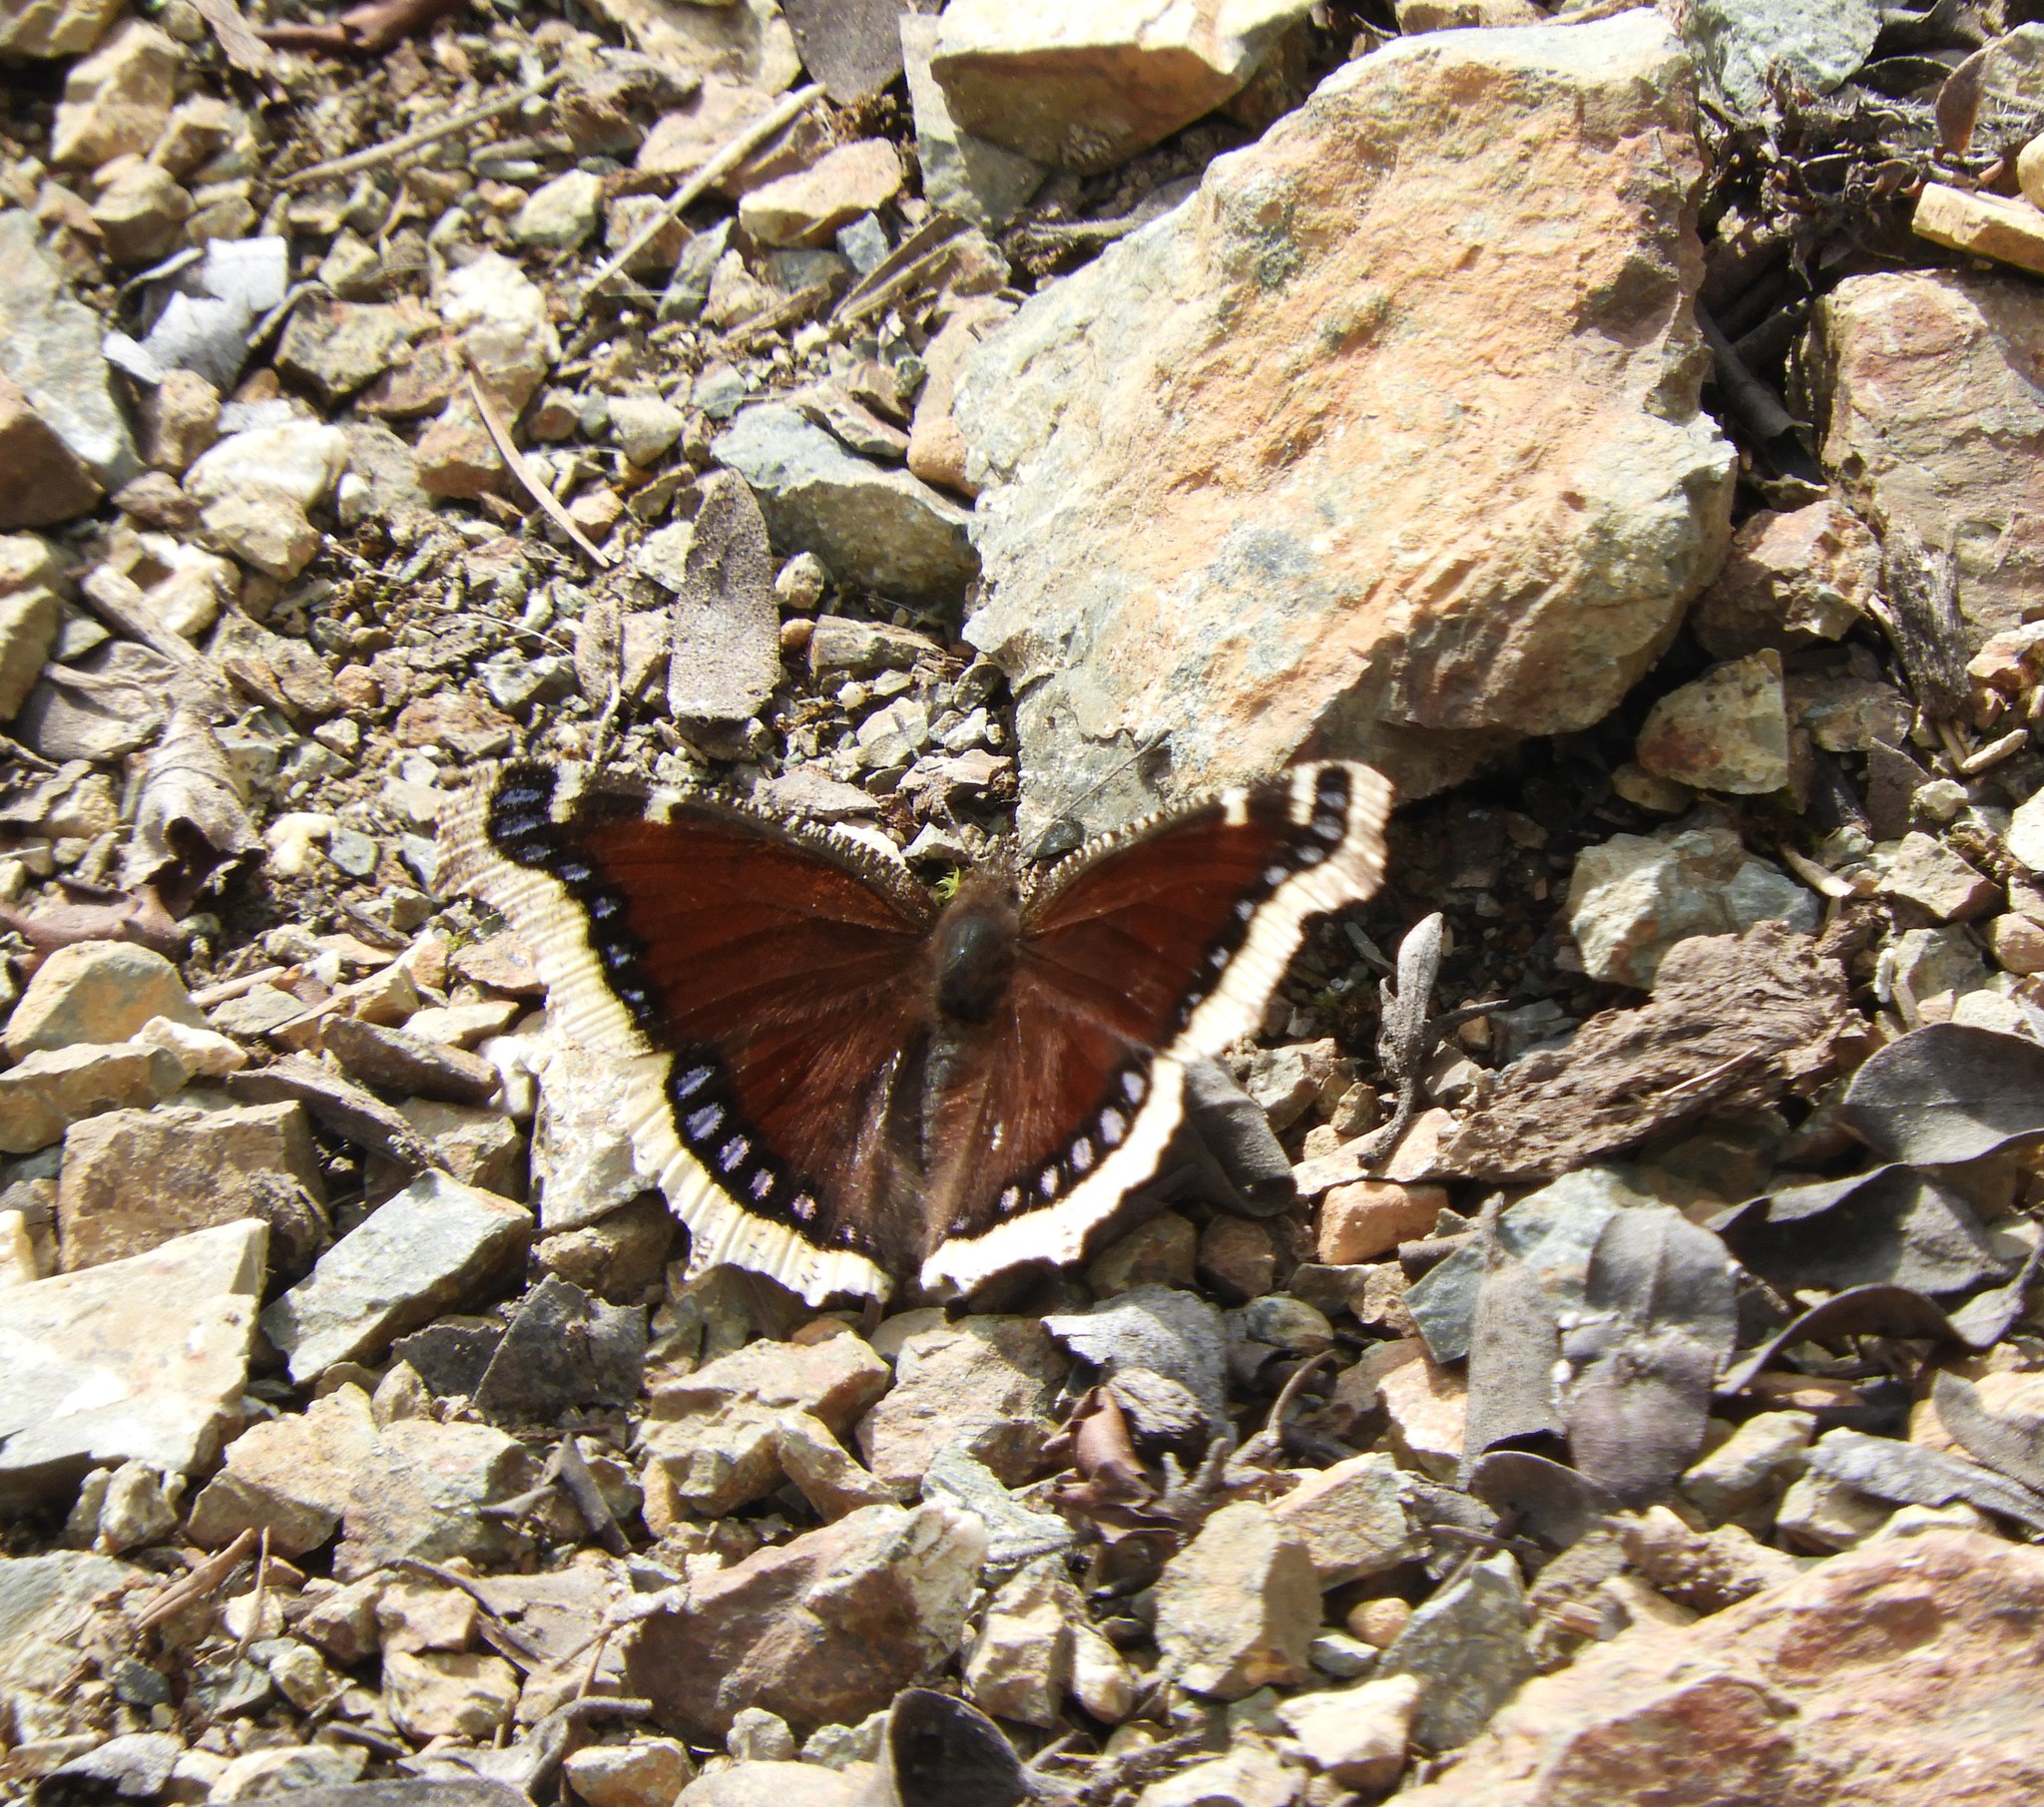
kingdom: Animalia
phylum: Arthropoda
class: Insecta
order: Lepidoptera
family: Nymphalidae
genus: Nymphalis
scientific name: Nymphalis antiopa
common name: Camberwell beauty
